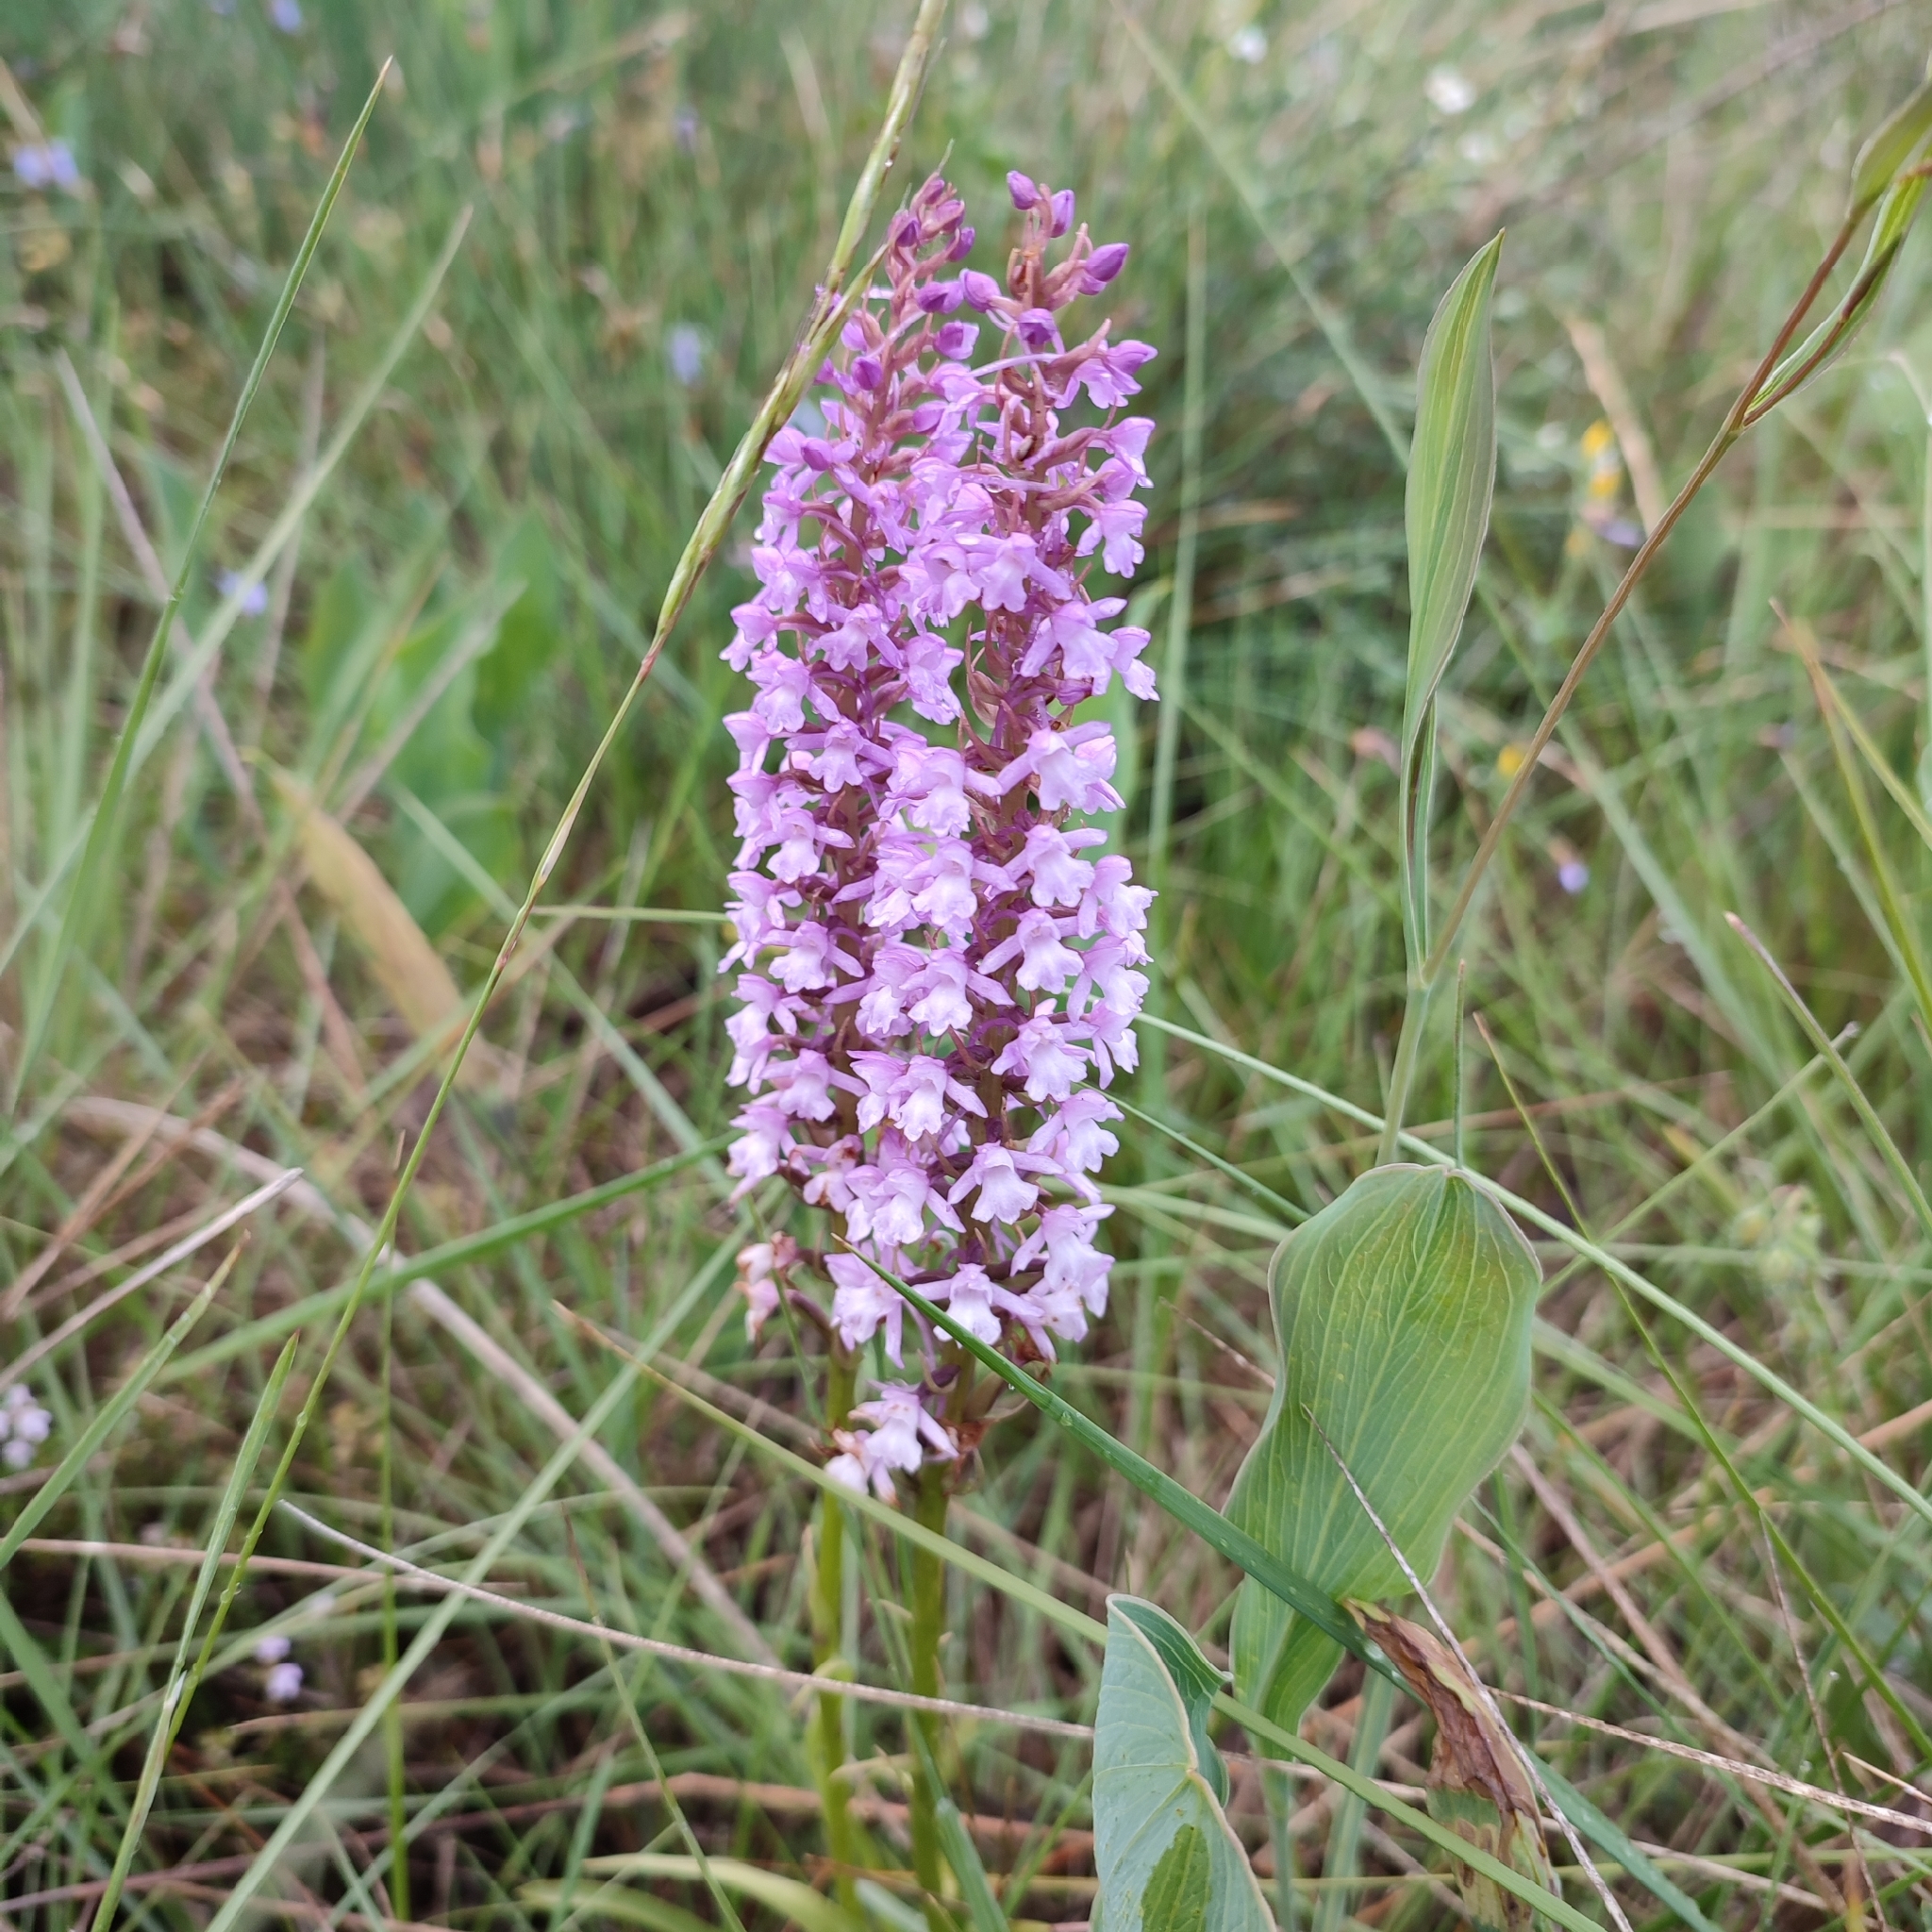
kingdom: Plantae
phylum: Tracheophyta
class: Liliopsida
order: Asparagales
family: Orchidaceae
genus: Gymnadenia
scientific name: Gymnadenia conopsea
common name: Fragrant orchid
